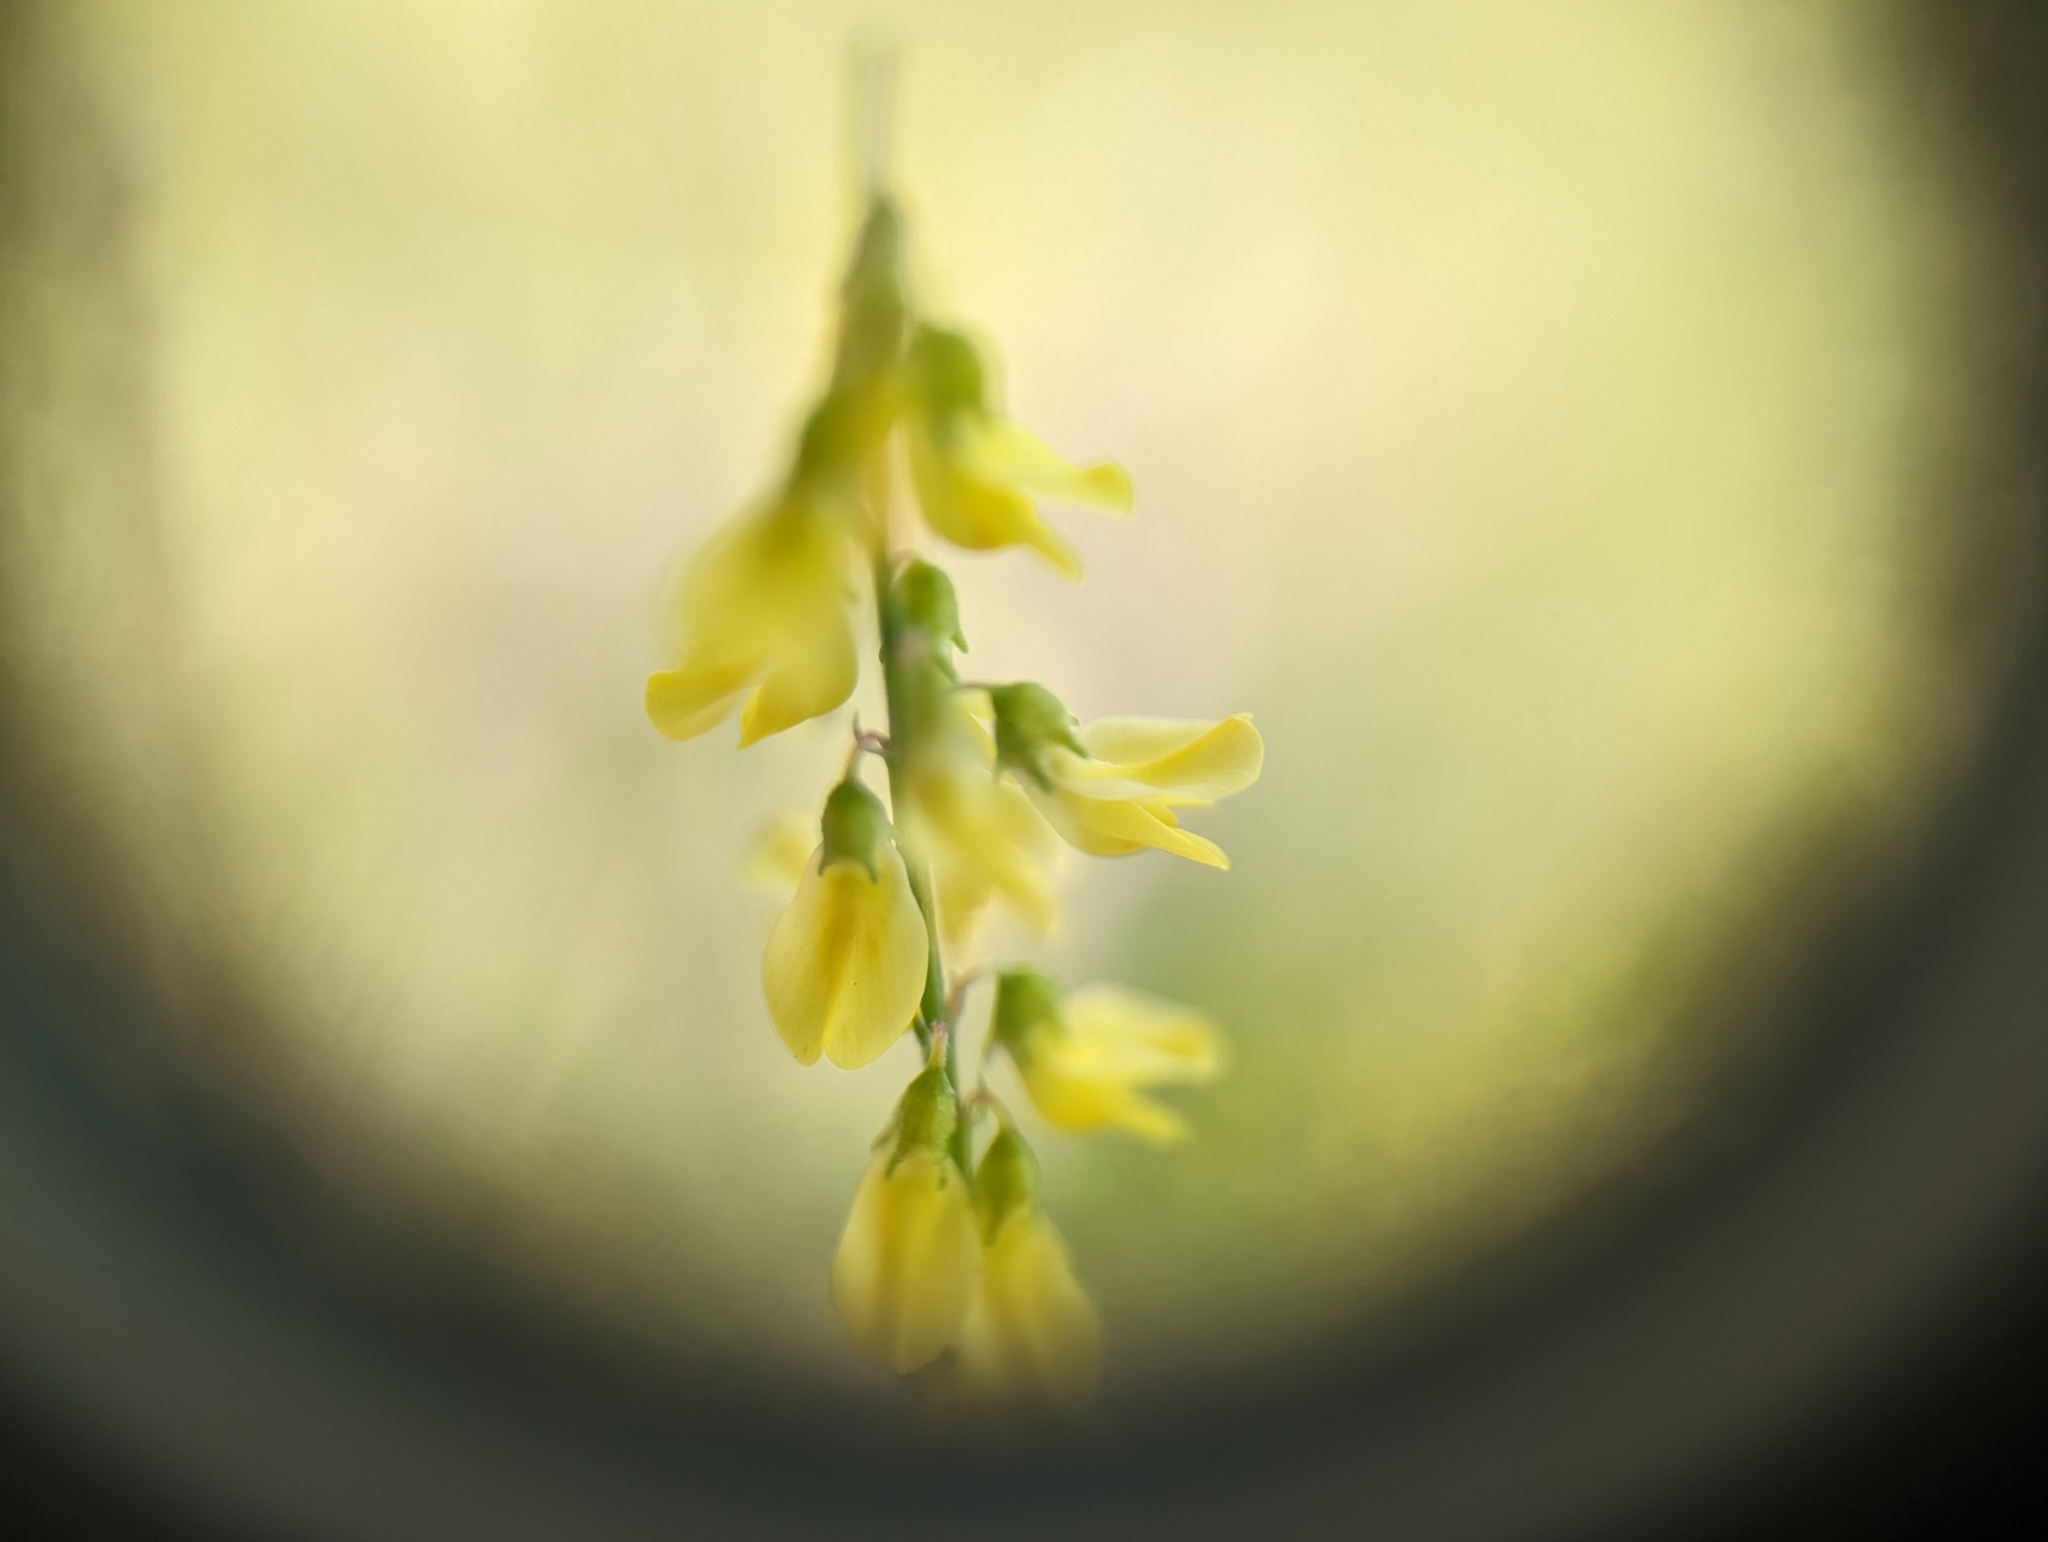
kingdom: Plantae
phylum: Tracheophyta
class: Magnoliopsida
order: Fabales
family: Fabaceae
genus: Melilotus
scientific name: Melilotus officinalis
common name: Sweetclover
